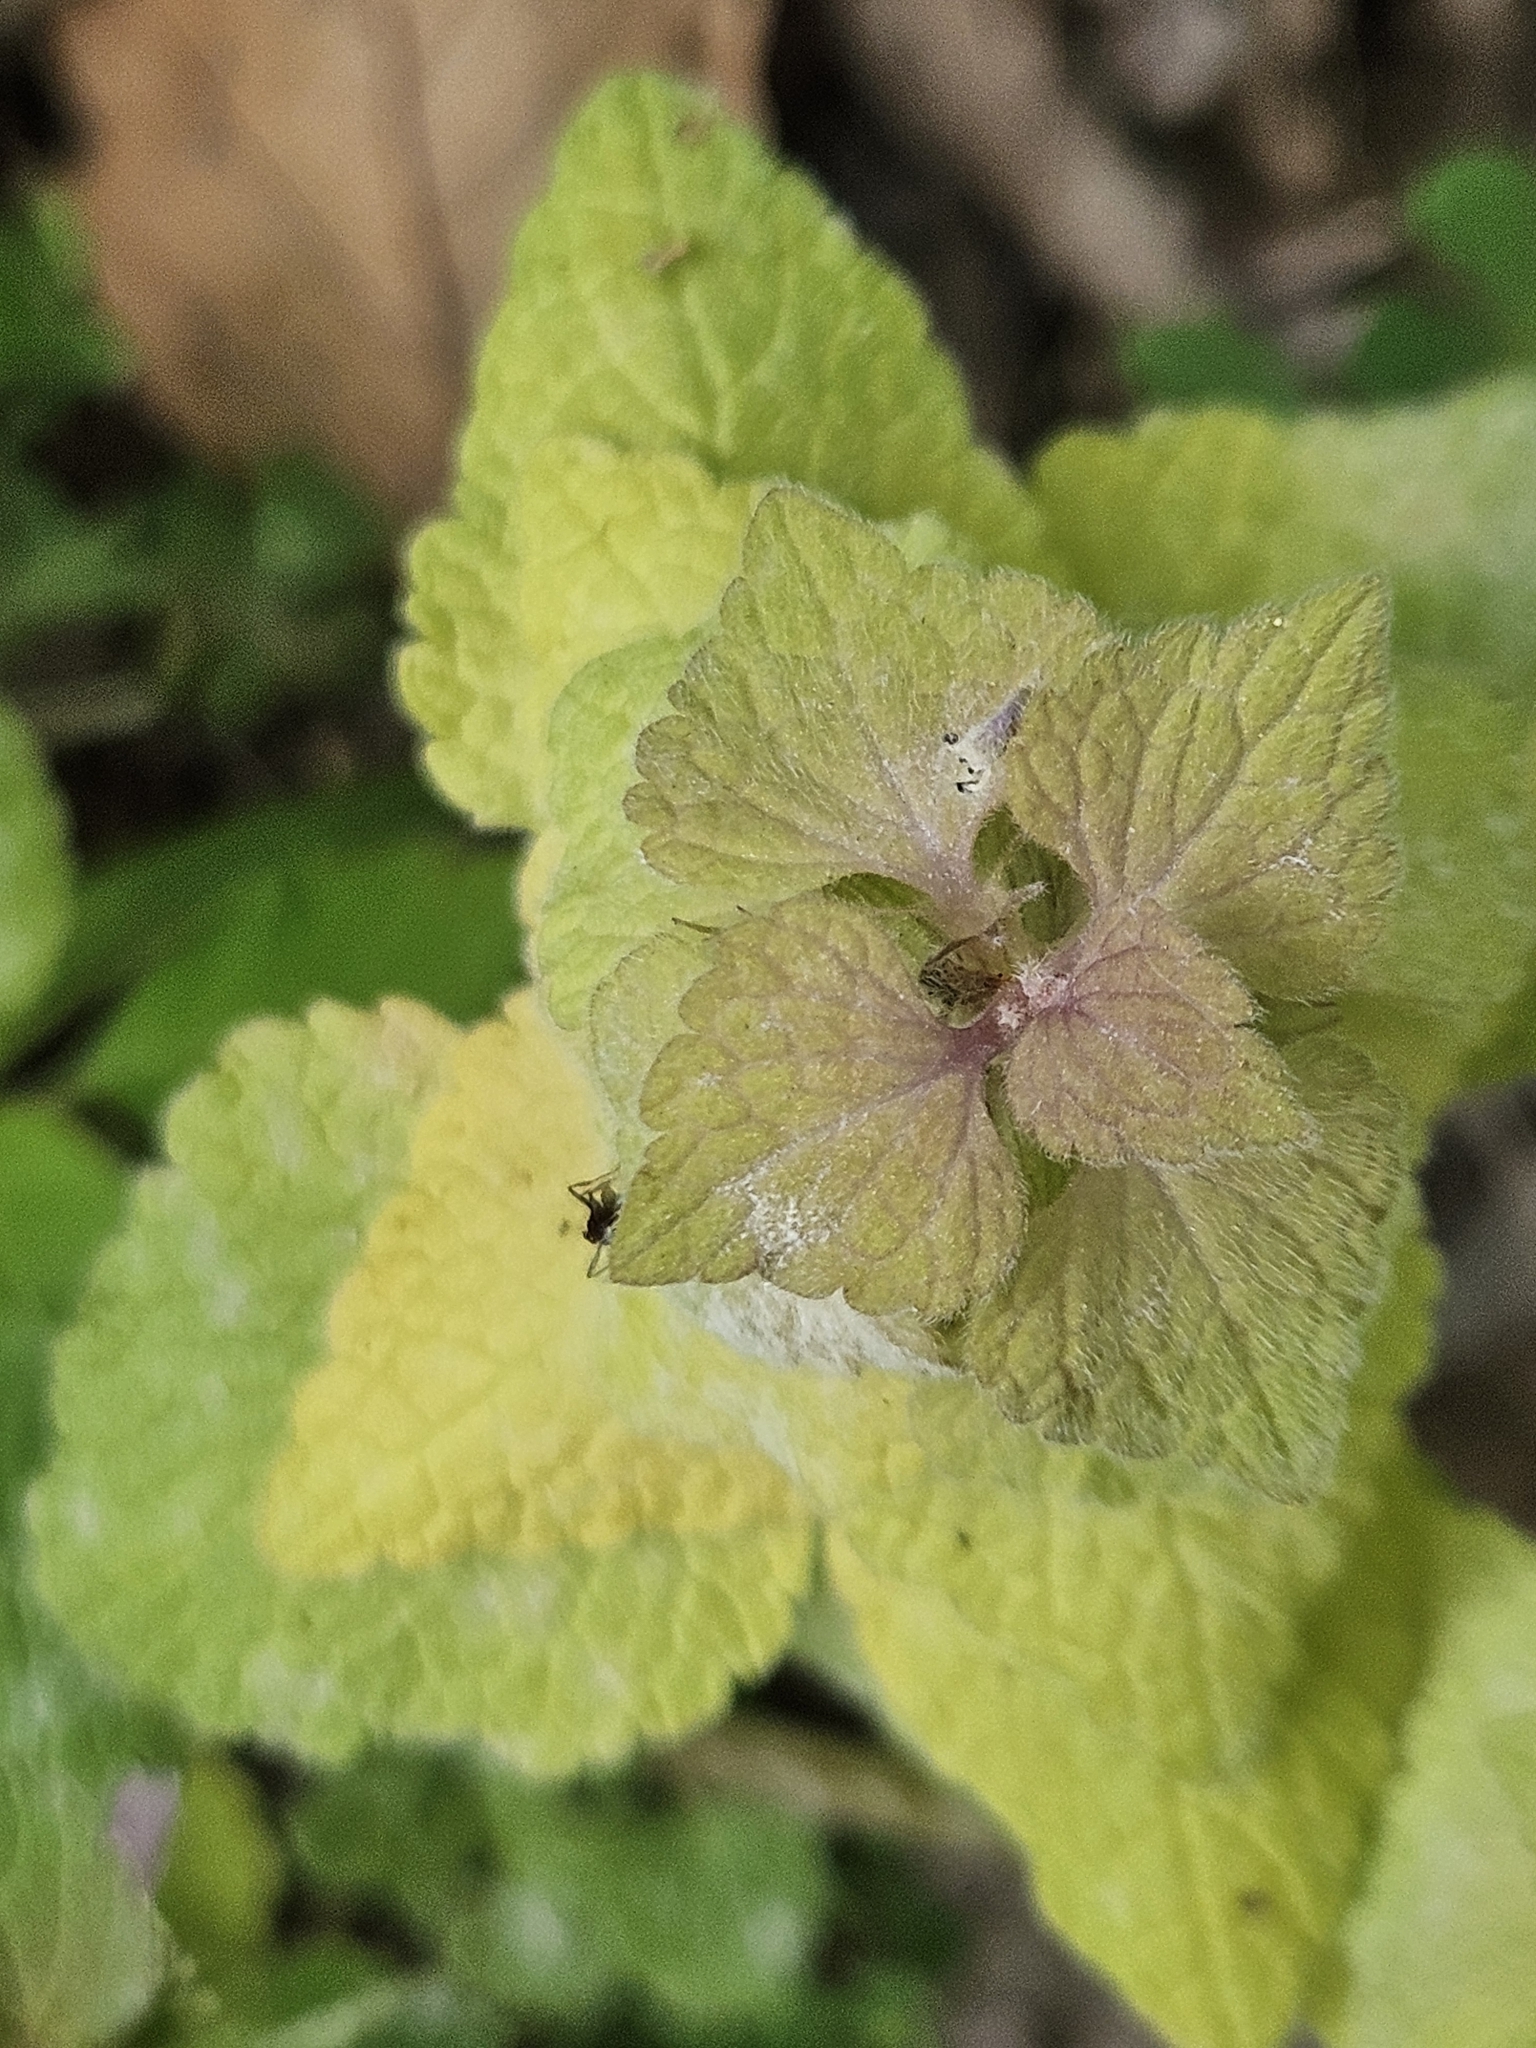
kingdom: Plantae
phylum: Tracheophyta
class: Magnoliopsida
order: Lamiales
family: Lamiaceae
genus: Lamium
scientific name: Lamium purpureum
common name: Red dead-nettle
